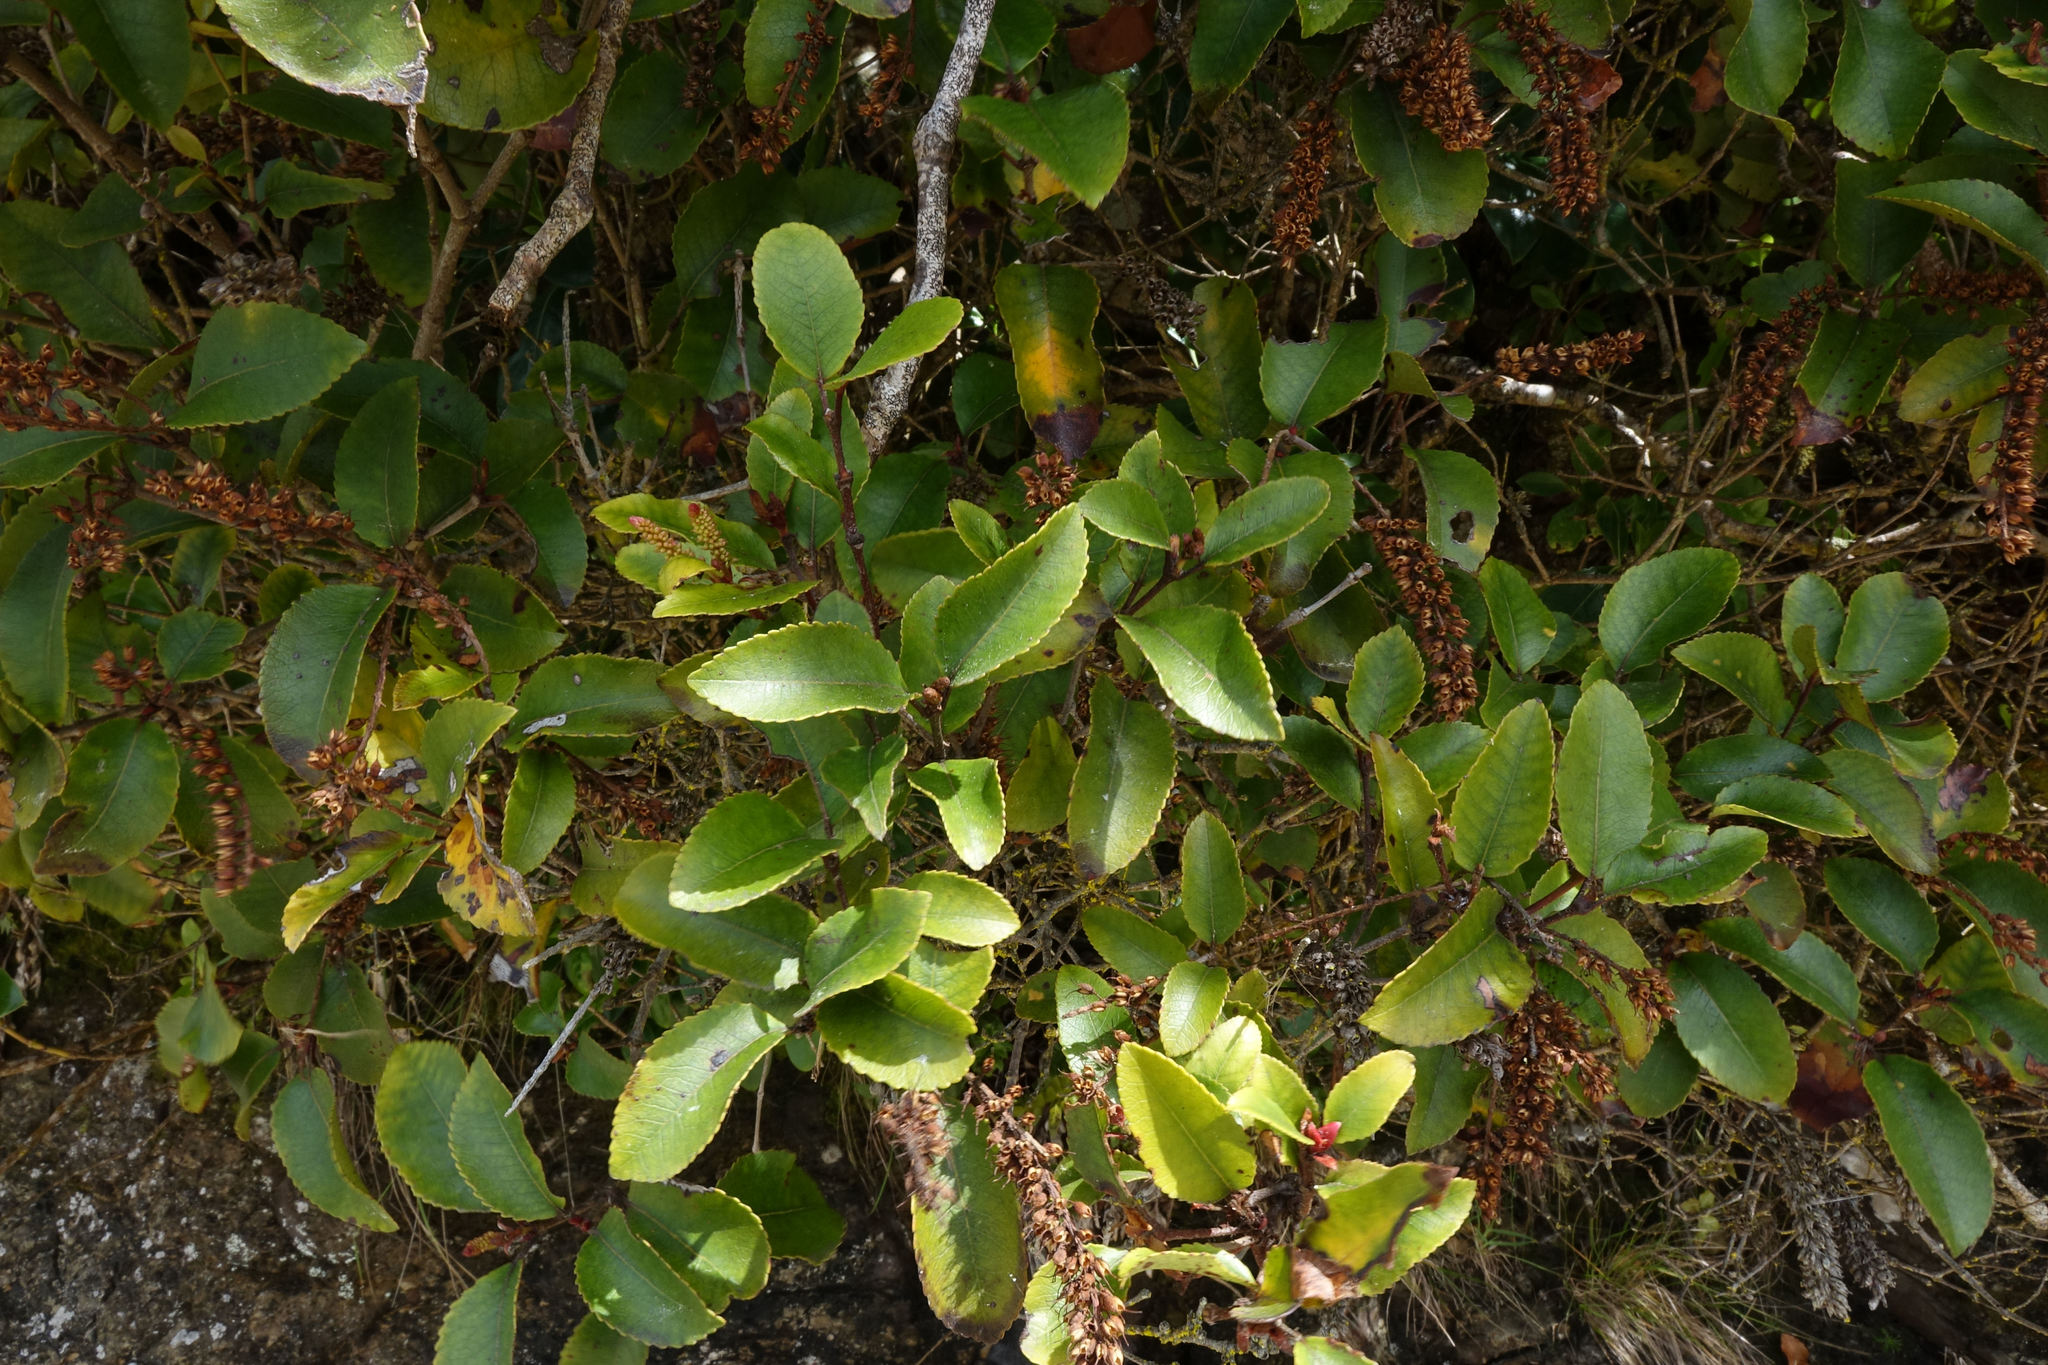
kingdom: Plantae
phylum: Tracheophyta
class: Magnoliopsida
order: Oxalidales
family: Cunoniaceae
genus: Pterophylla
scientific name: Pterophylla racemosa
